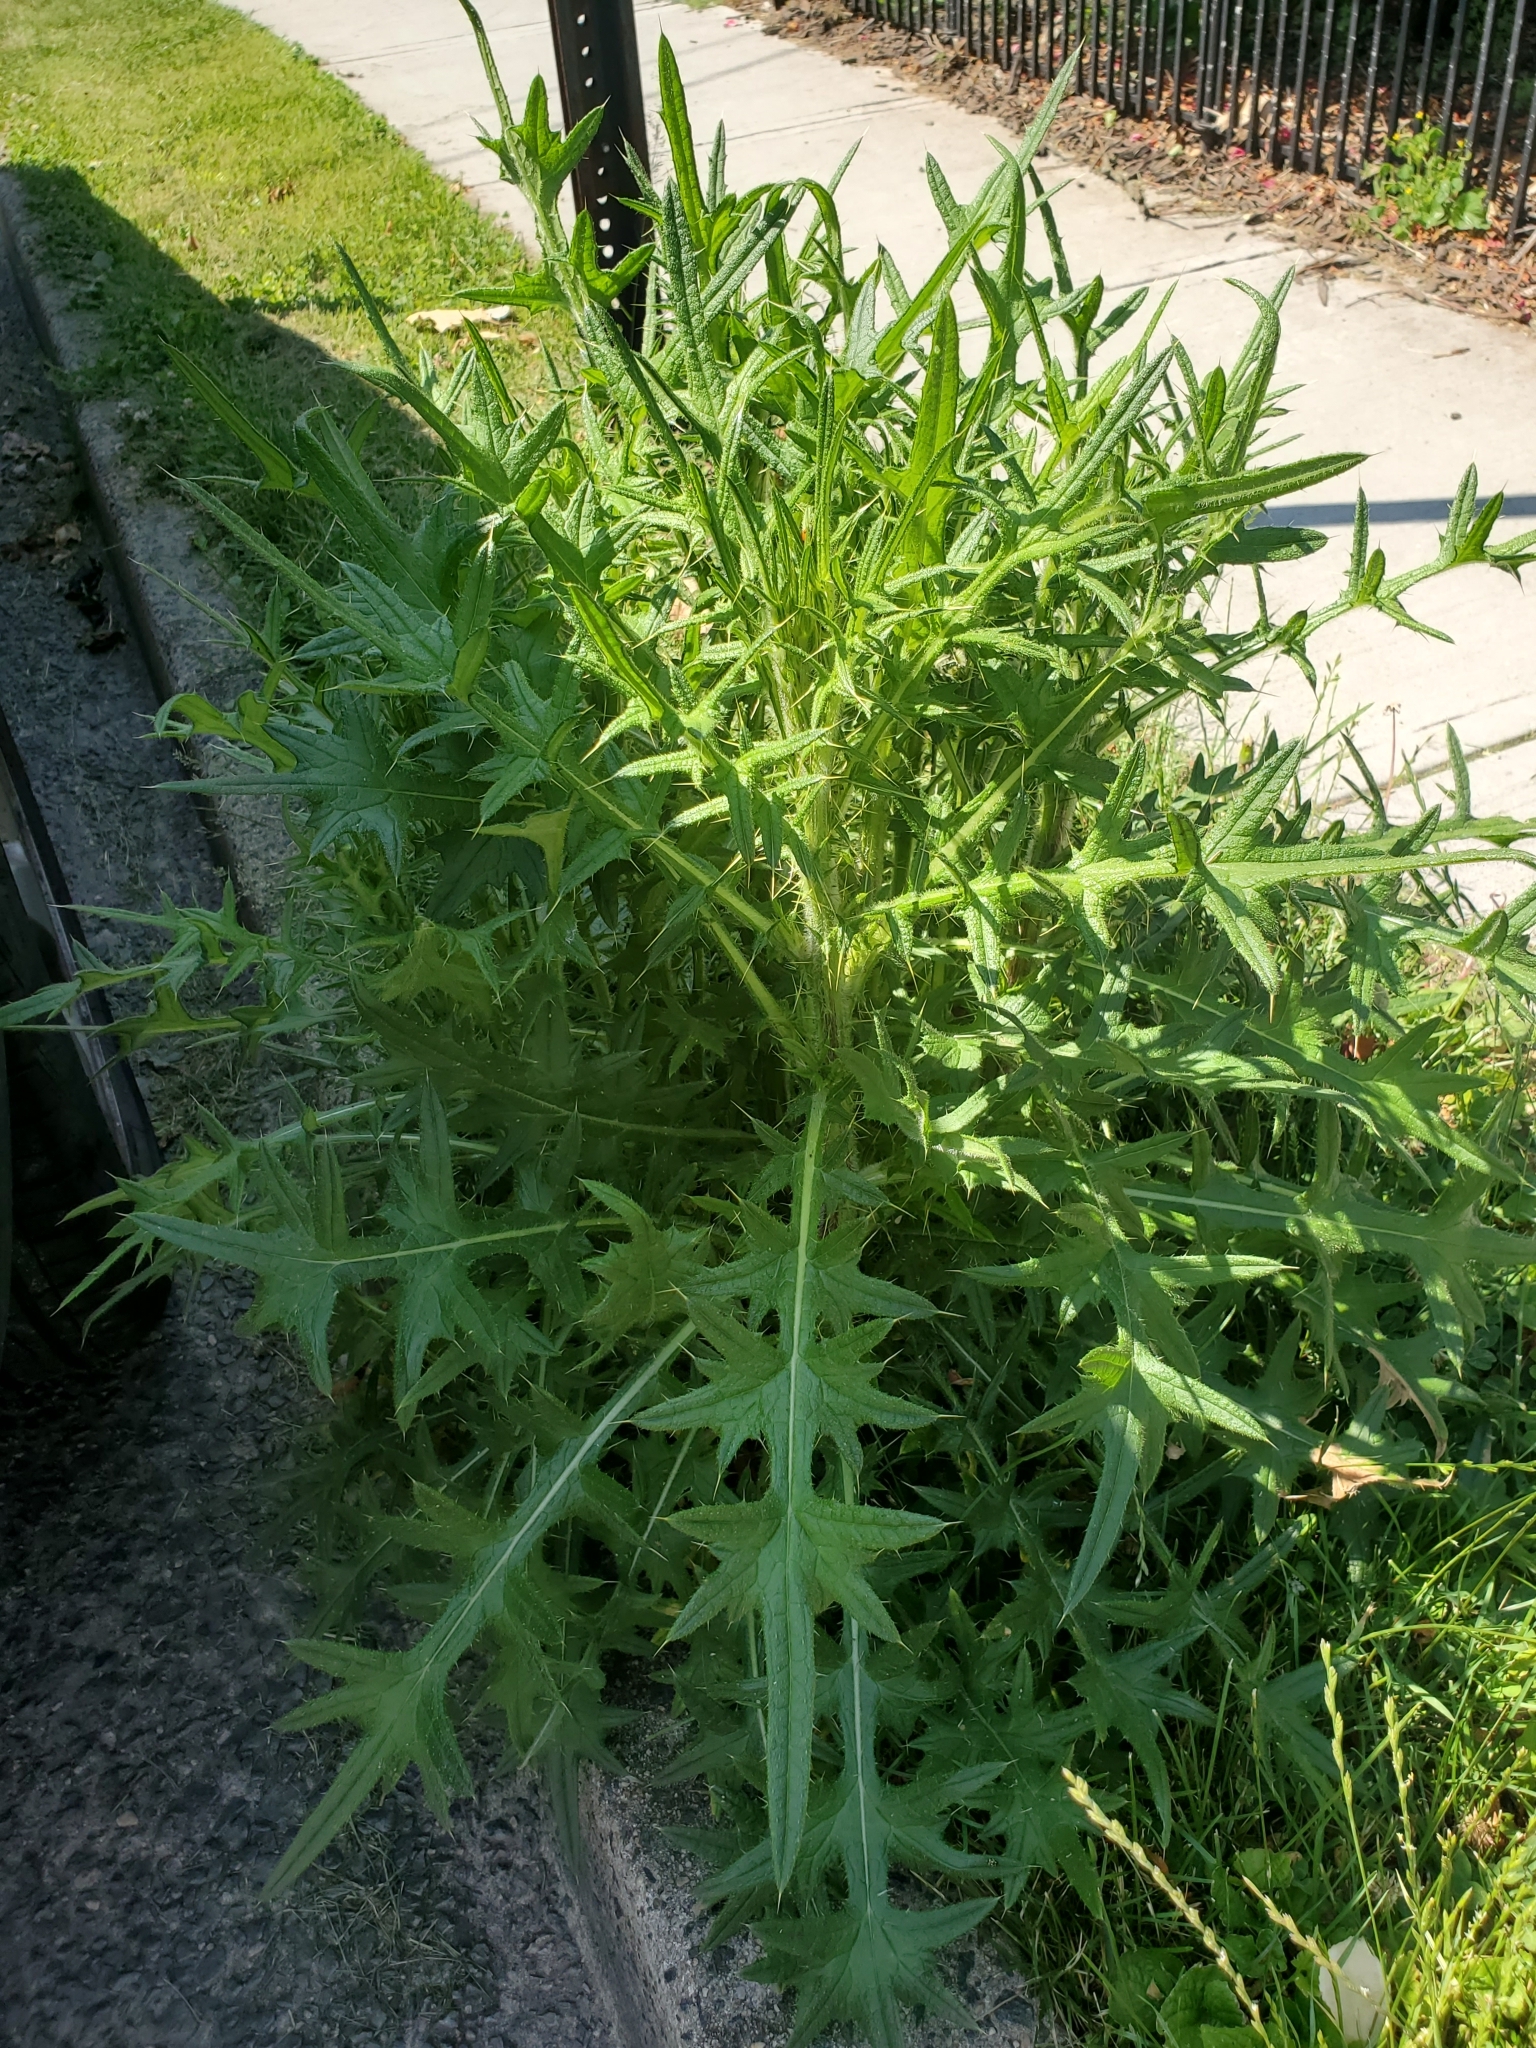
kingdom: Plantae
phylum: Tracheophyta
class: Magnoliopsida
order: Asterales
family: Asteraceae
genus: Cirsium
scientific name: Cirsium vulgare
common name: Bull thistle
